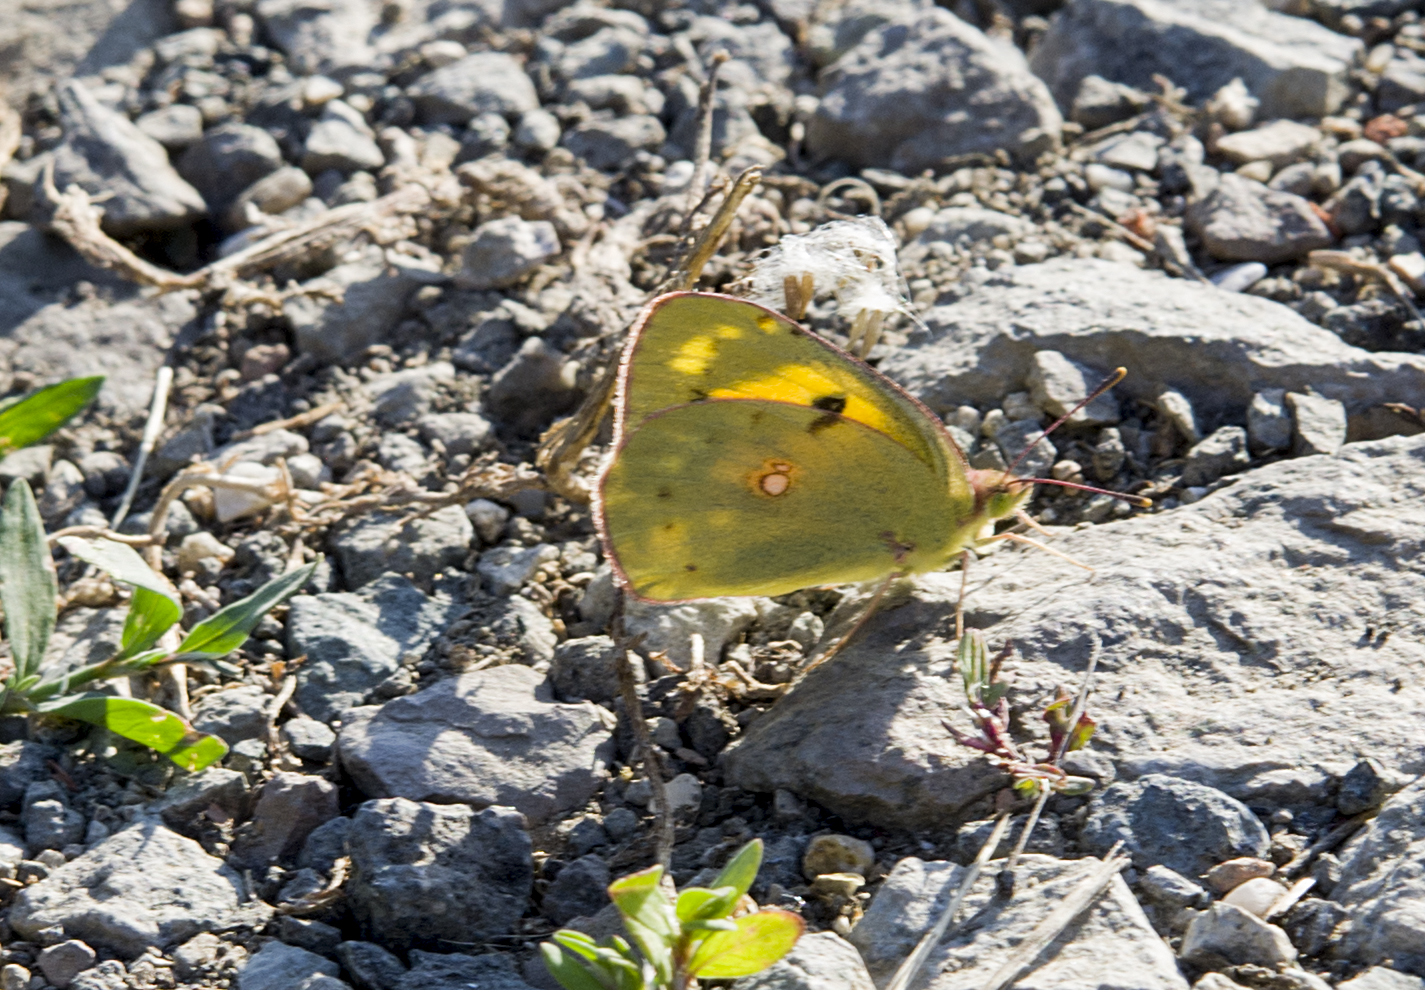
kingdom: Animalia
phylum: Arthropoda
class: Insecta
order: Lepidoptera
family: Pieridae
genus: Colias
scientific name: Colias croceus
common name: Clouded yellow
